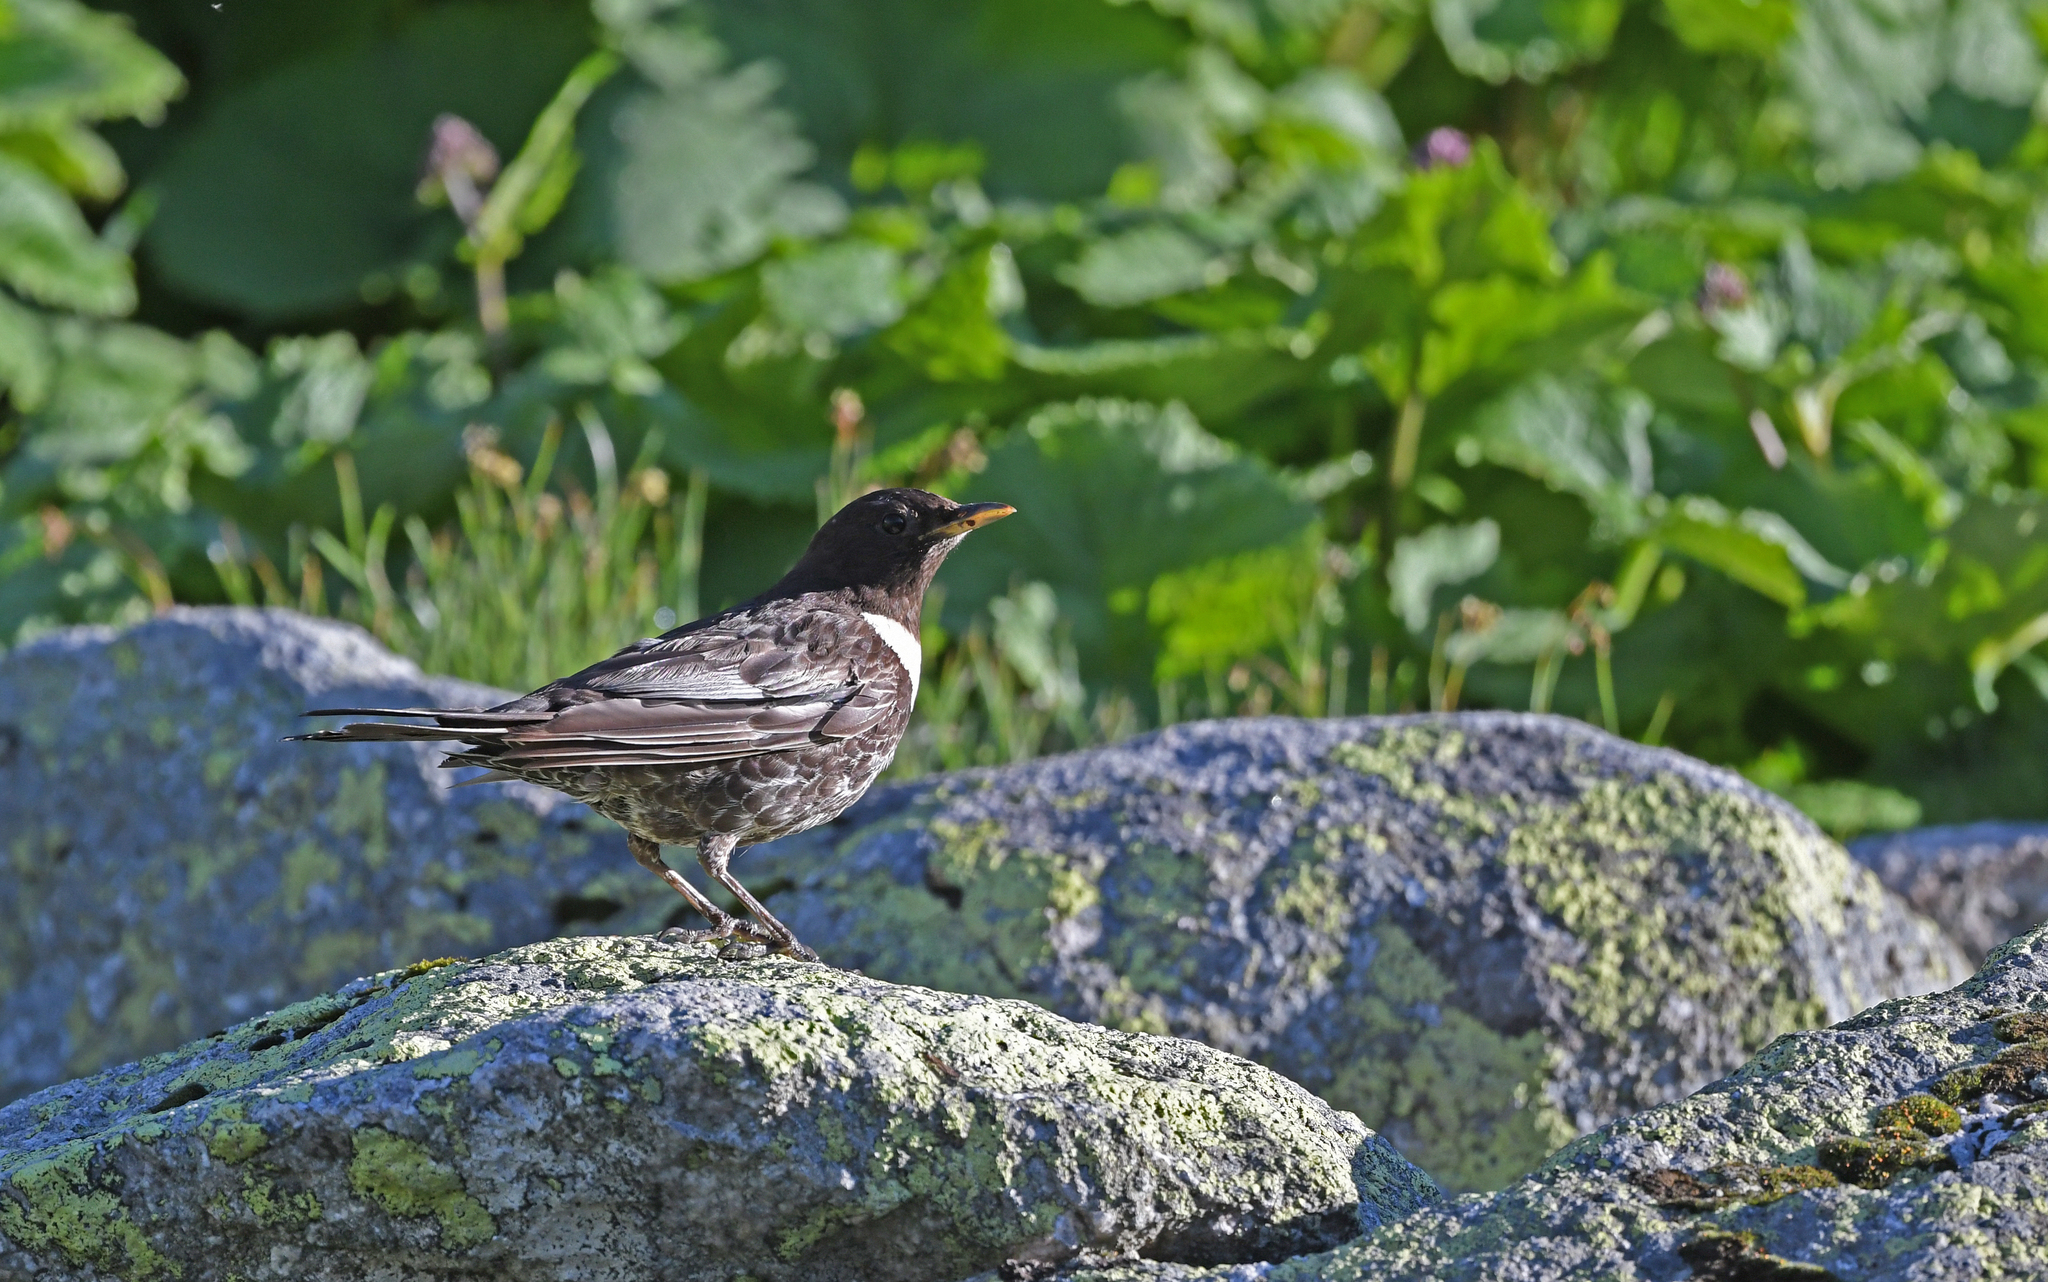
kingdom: Animalia
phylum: Chordata
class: Aves
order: Passeriformes
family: Turdidae
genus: Turdus
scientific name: Turdus torquatus
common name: Ring ouzel
